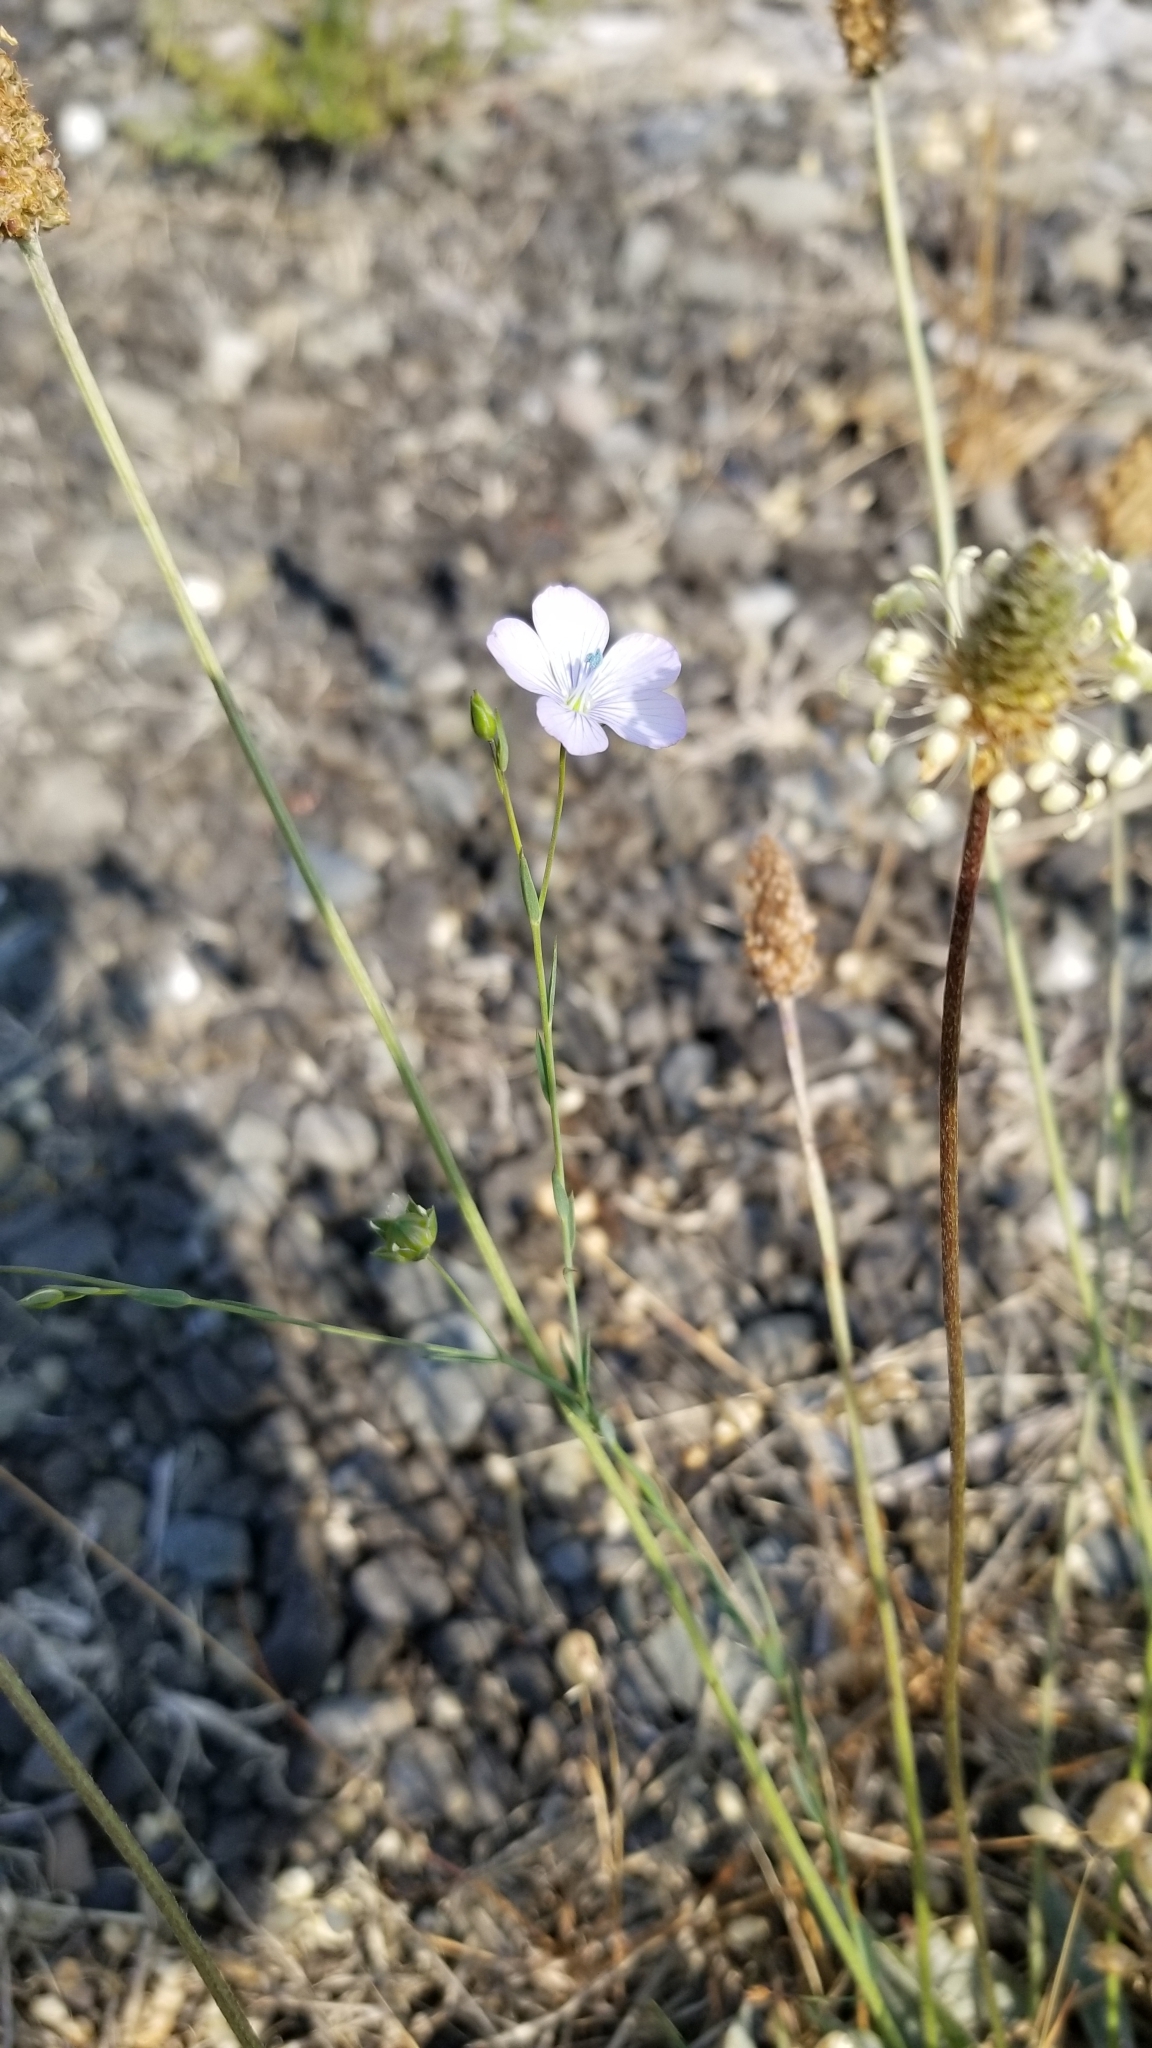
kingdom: Plantae
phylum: Tracheophyta
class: Magnoliopsida
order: Malpighiales
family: Linaceae
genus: Linum
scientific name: Linum bienne
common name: Pale flax
